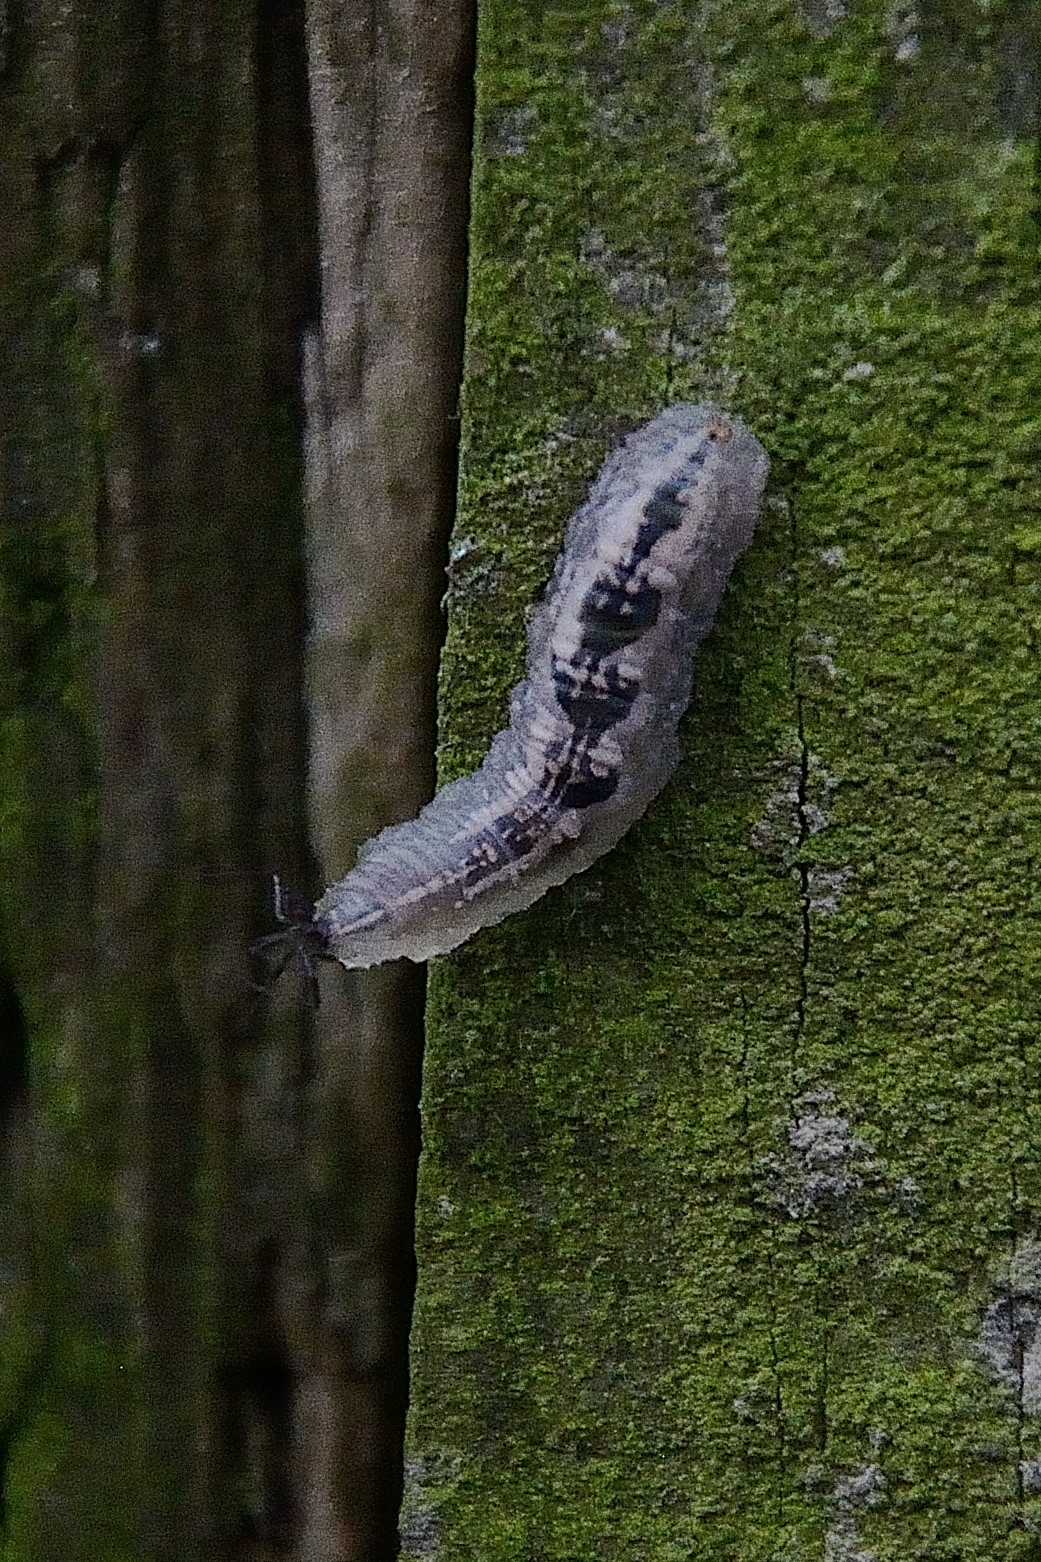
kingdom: Animalia
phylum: Arthropoda
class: Insecta
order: Diptera
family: Syrphidae
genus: Syrphus
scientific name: Syrphus
